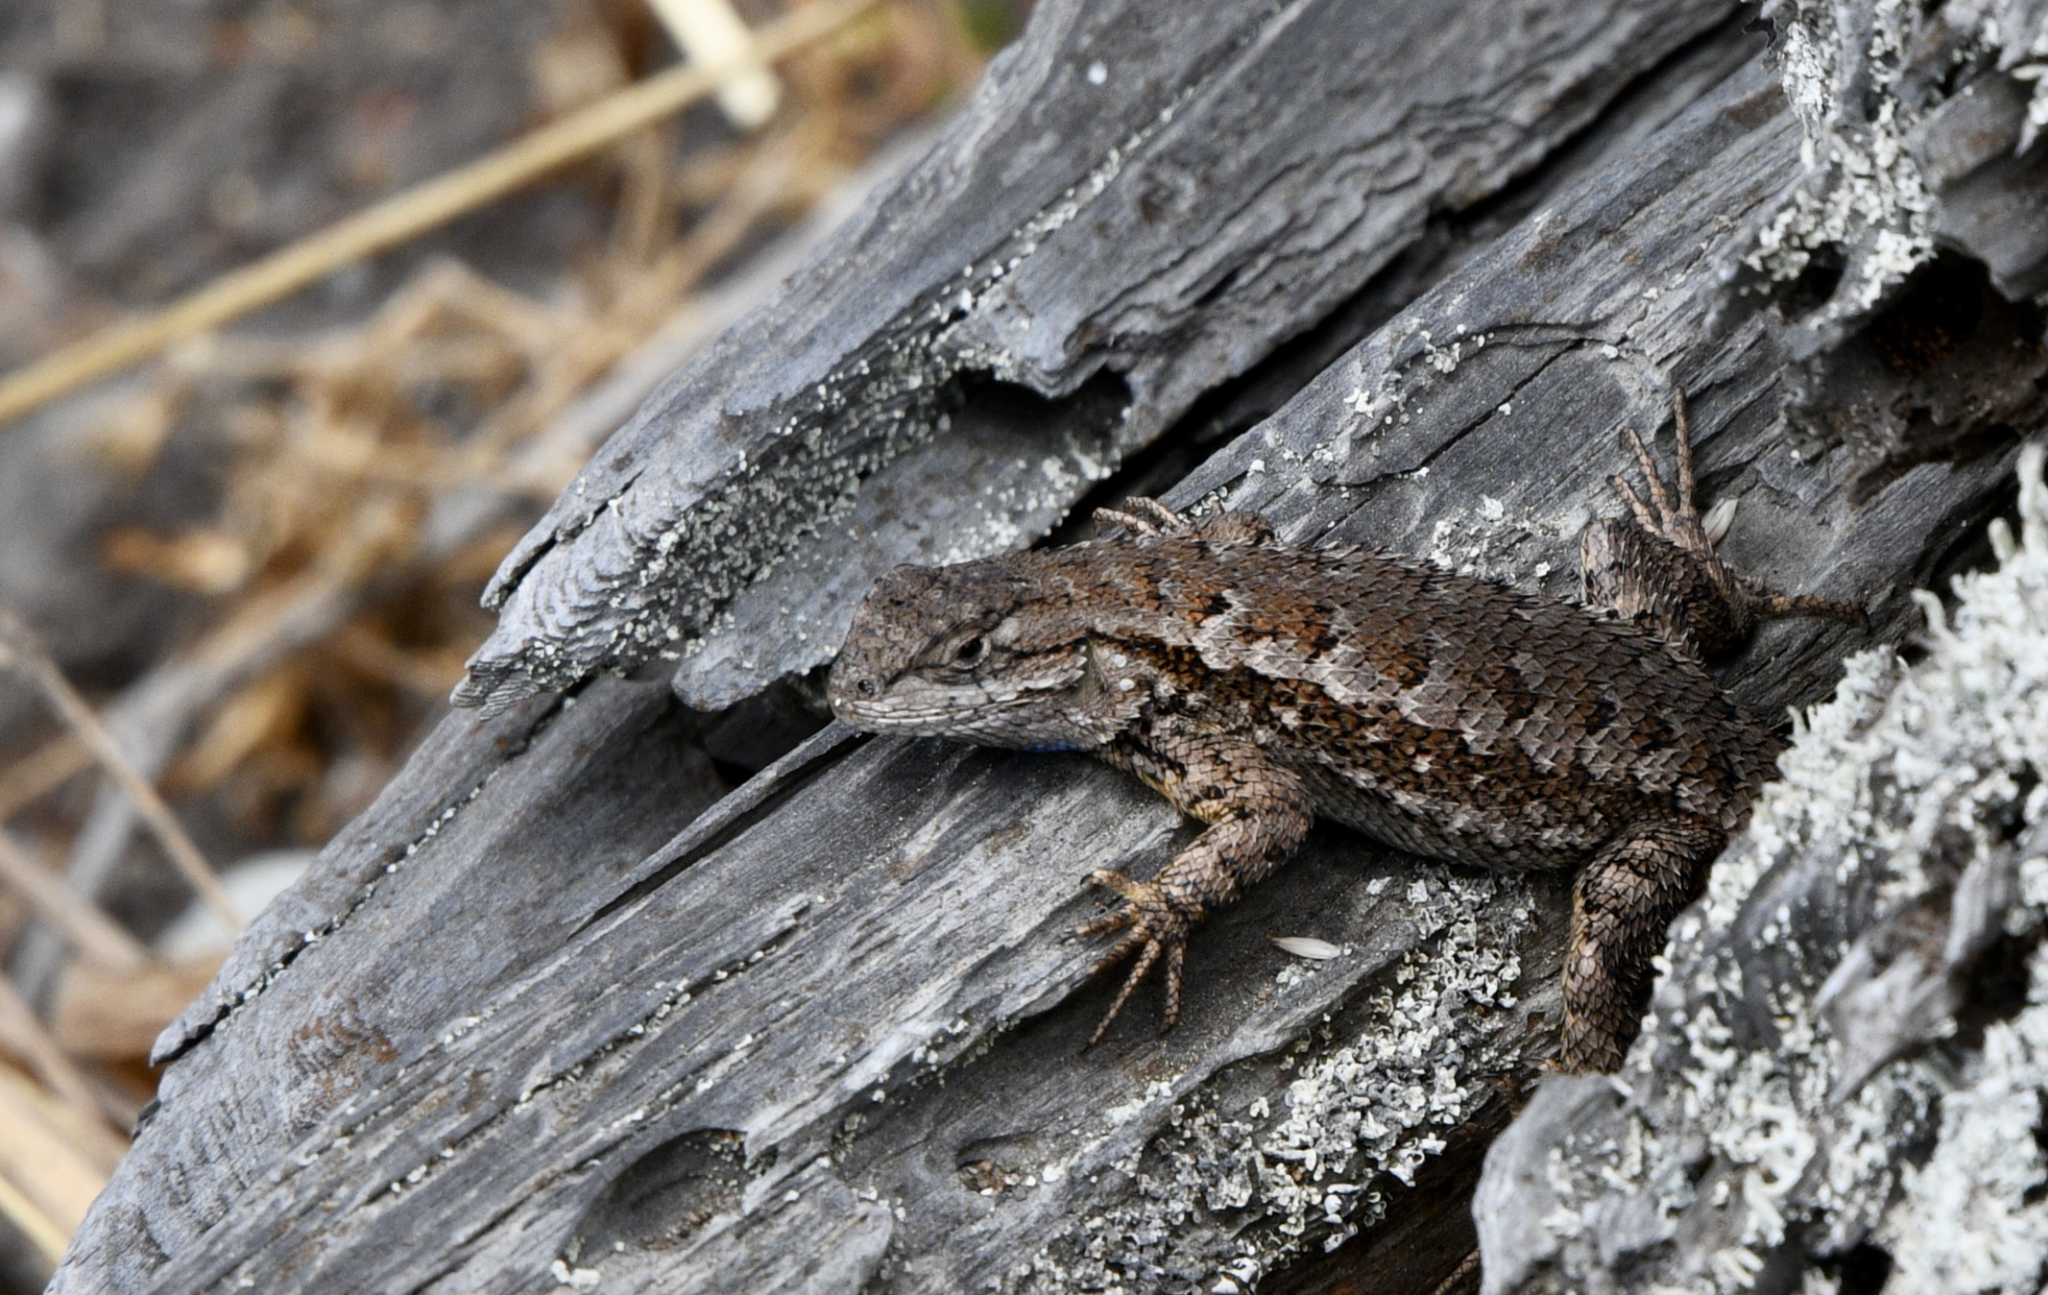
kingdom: Animalia
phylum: Chordata
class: Squamata
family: Phrynosomatidae
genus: Sceloporus
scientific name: Sceloporus occidentalis
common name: Western fence lizard
